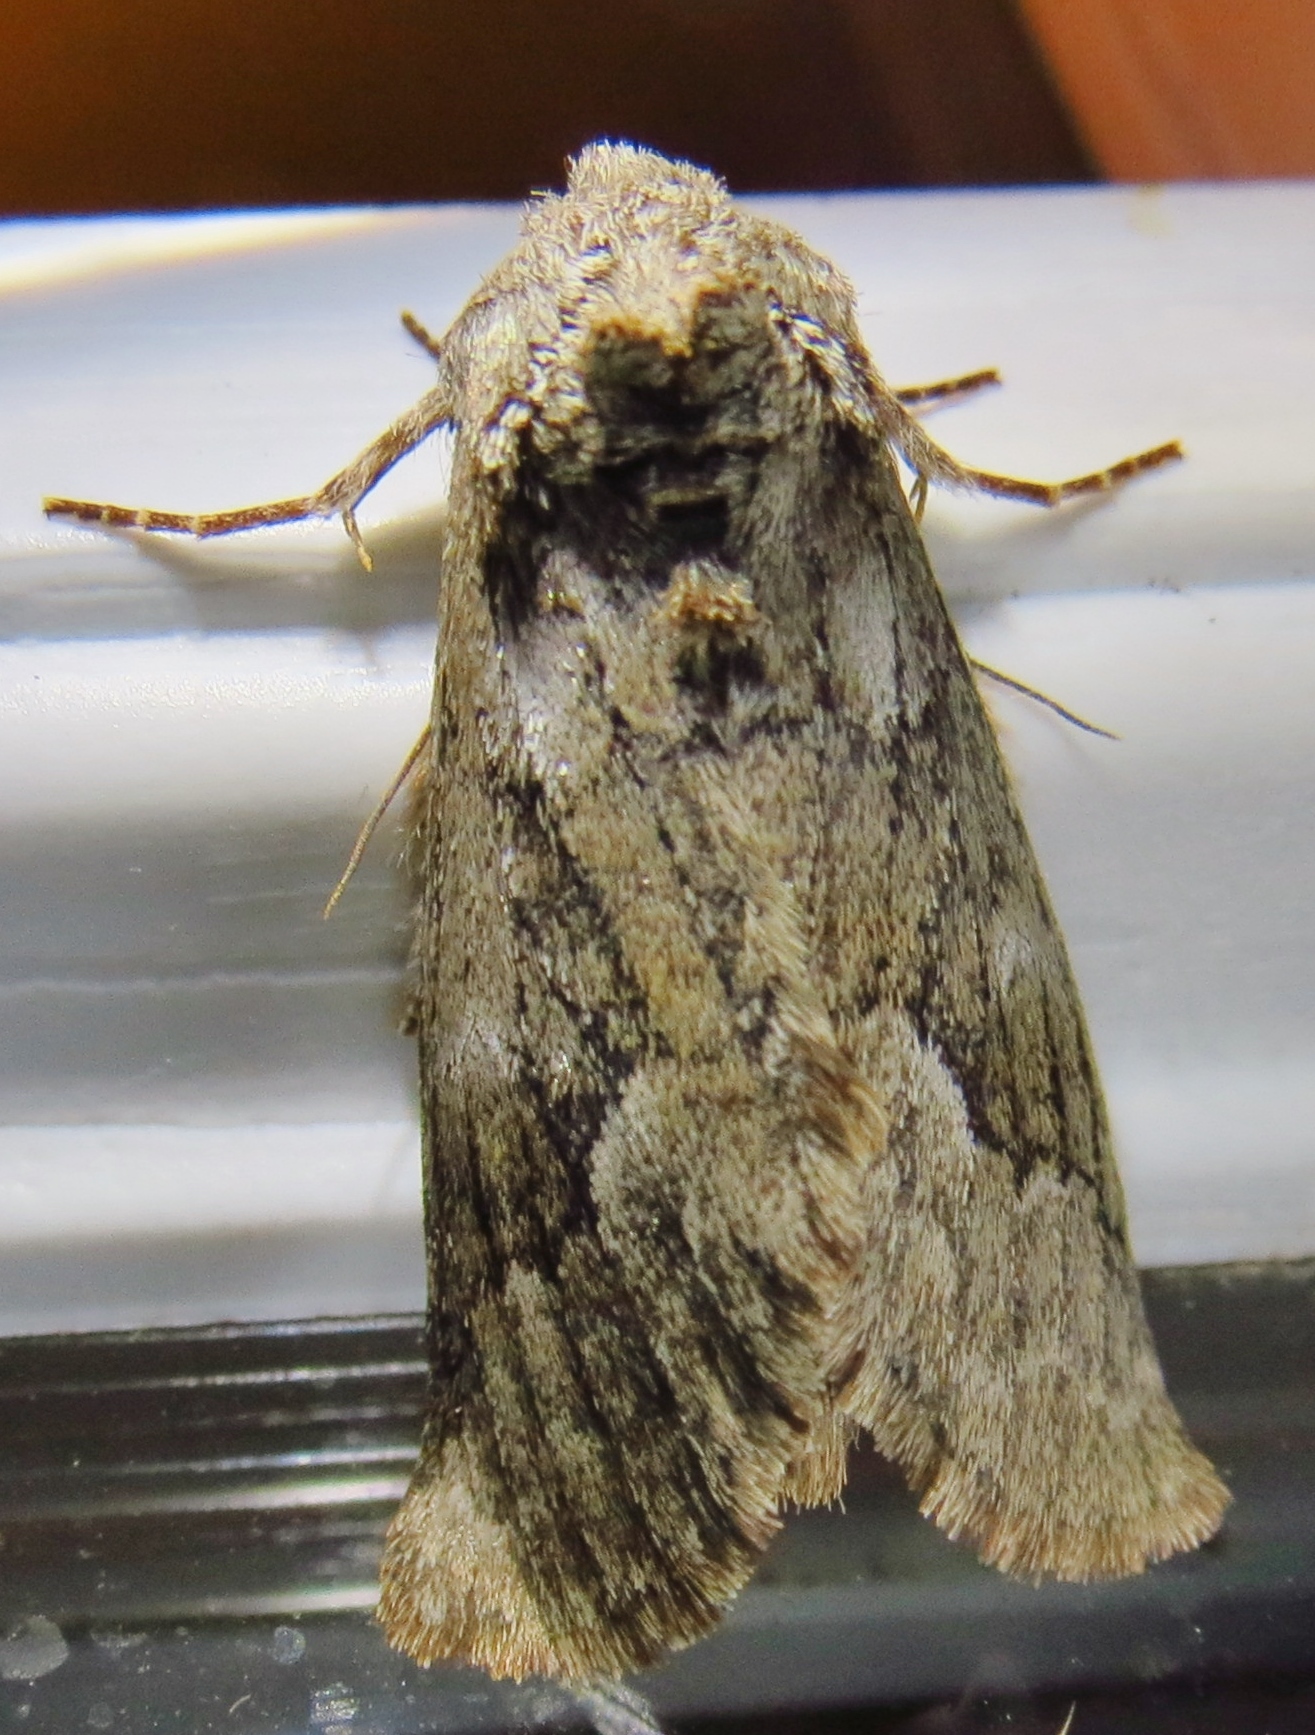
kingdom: Animalia
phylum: Arthropoda
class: Insecta
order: Lepidoptera
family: Notodontidae
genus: Lochmaeus
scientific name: Lochmaeus bilineata
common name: Double-lined prominent
